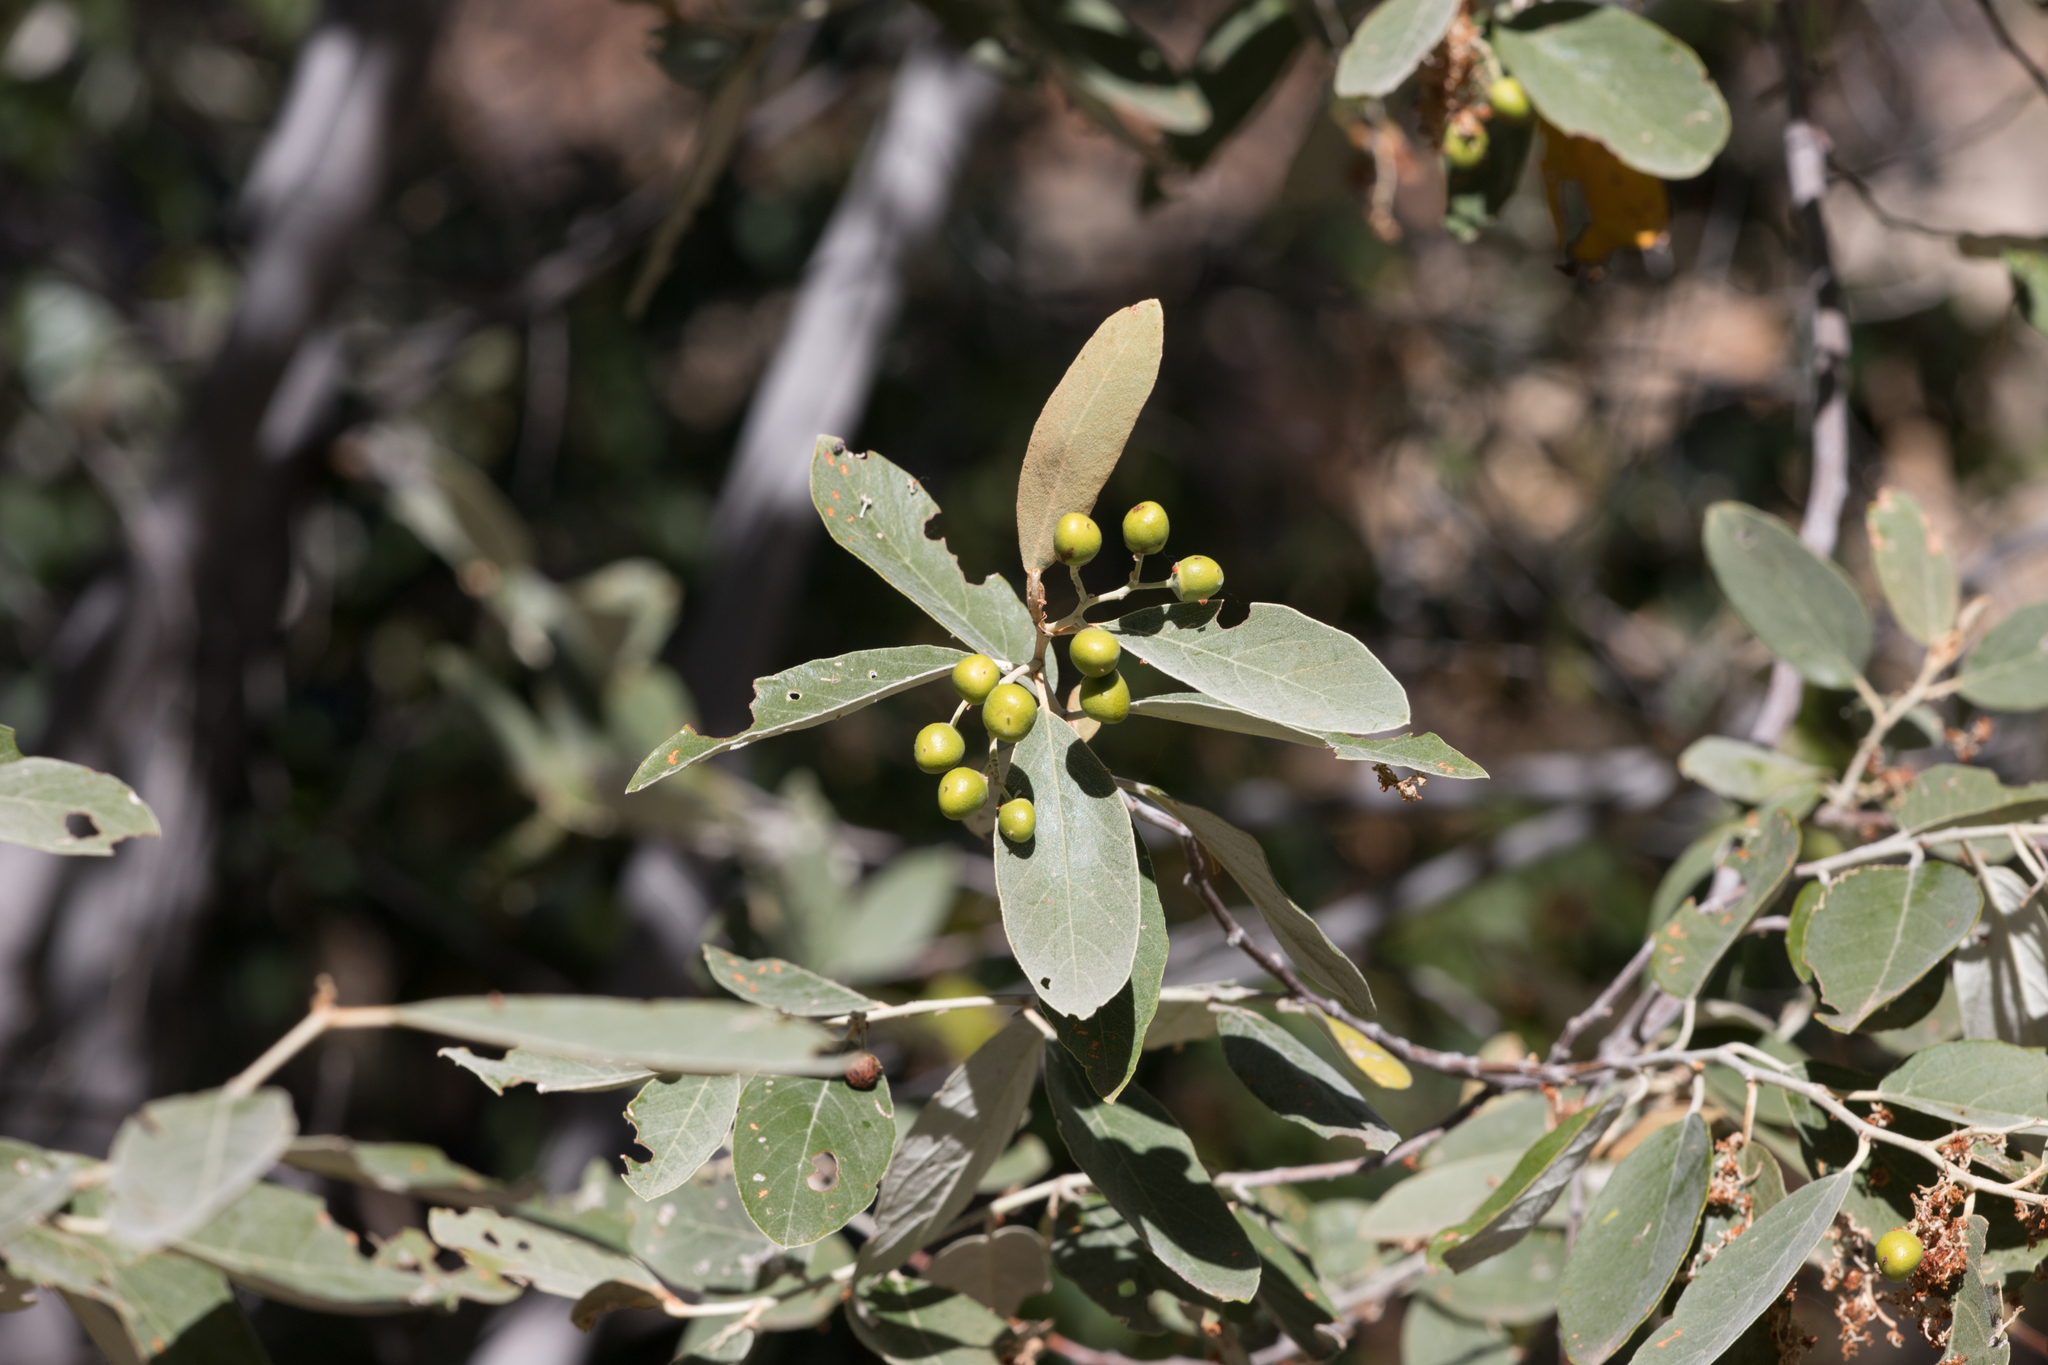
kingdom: Plantae
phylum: Tracheophyta
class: Magnoliopsida
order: Rosales
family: Rhamnaceae
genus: Alphitonia
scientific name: Alphitonia excelsa
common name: Red ash
